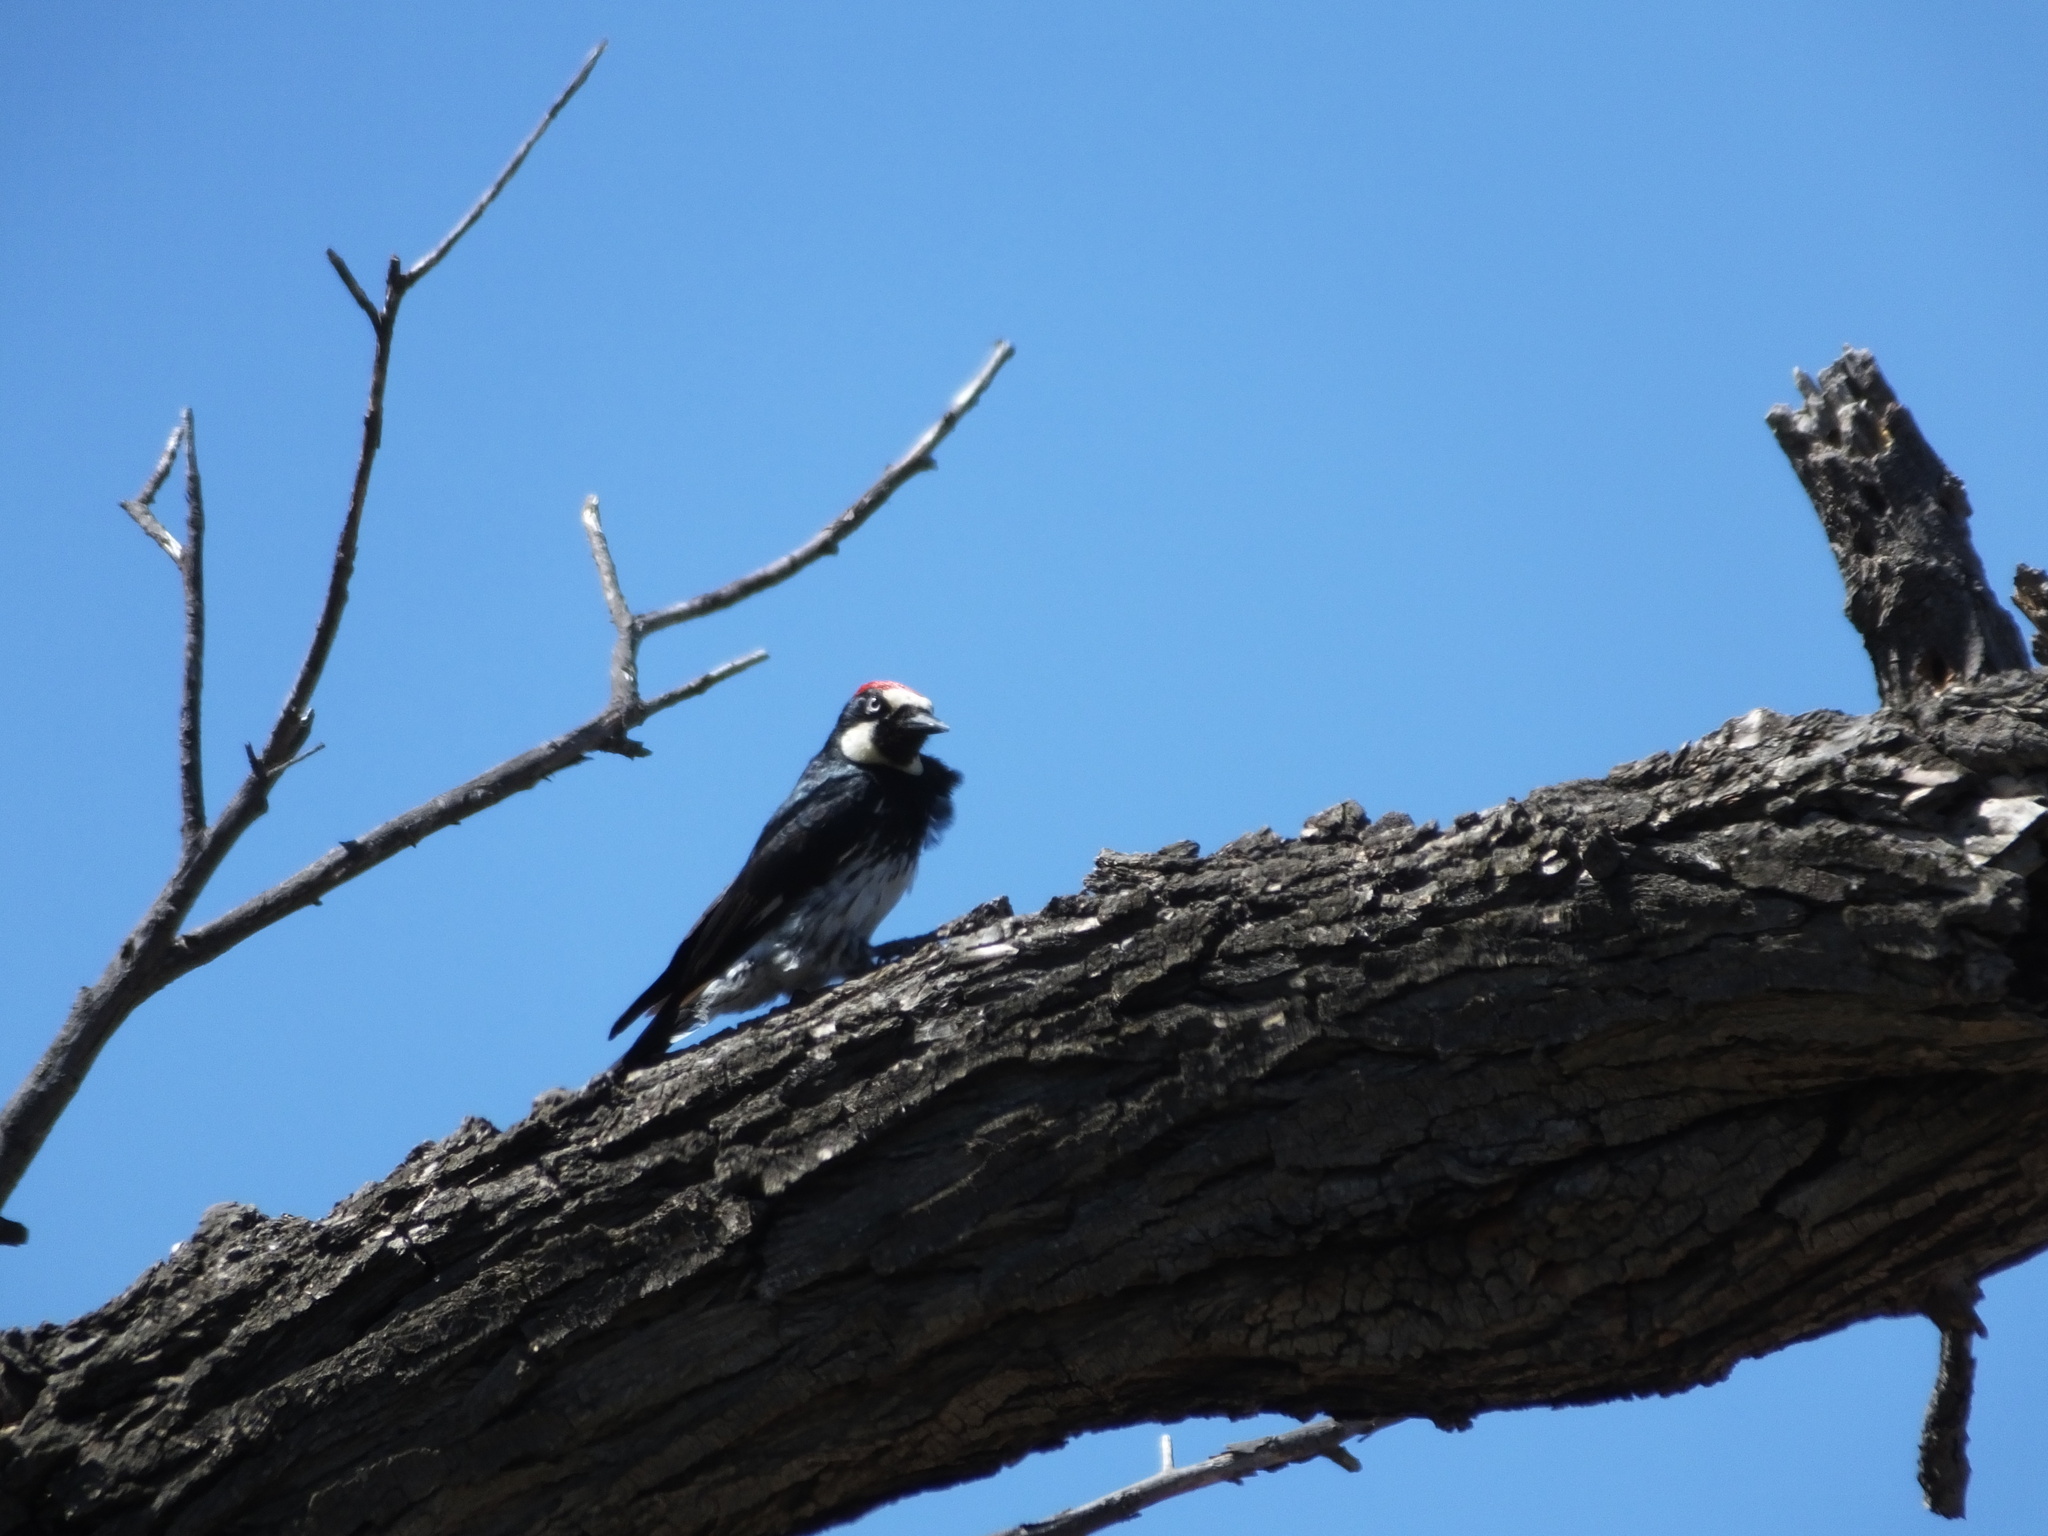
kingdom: Animalia
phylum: Chordata
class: Aves
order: Piciformes
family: Picidae
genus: Melanerpes
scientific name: Melanerpes formicivorus
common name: Acorn woodpecker
